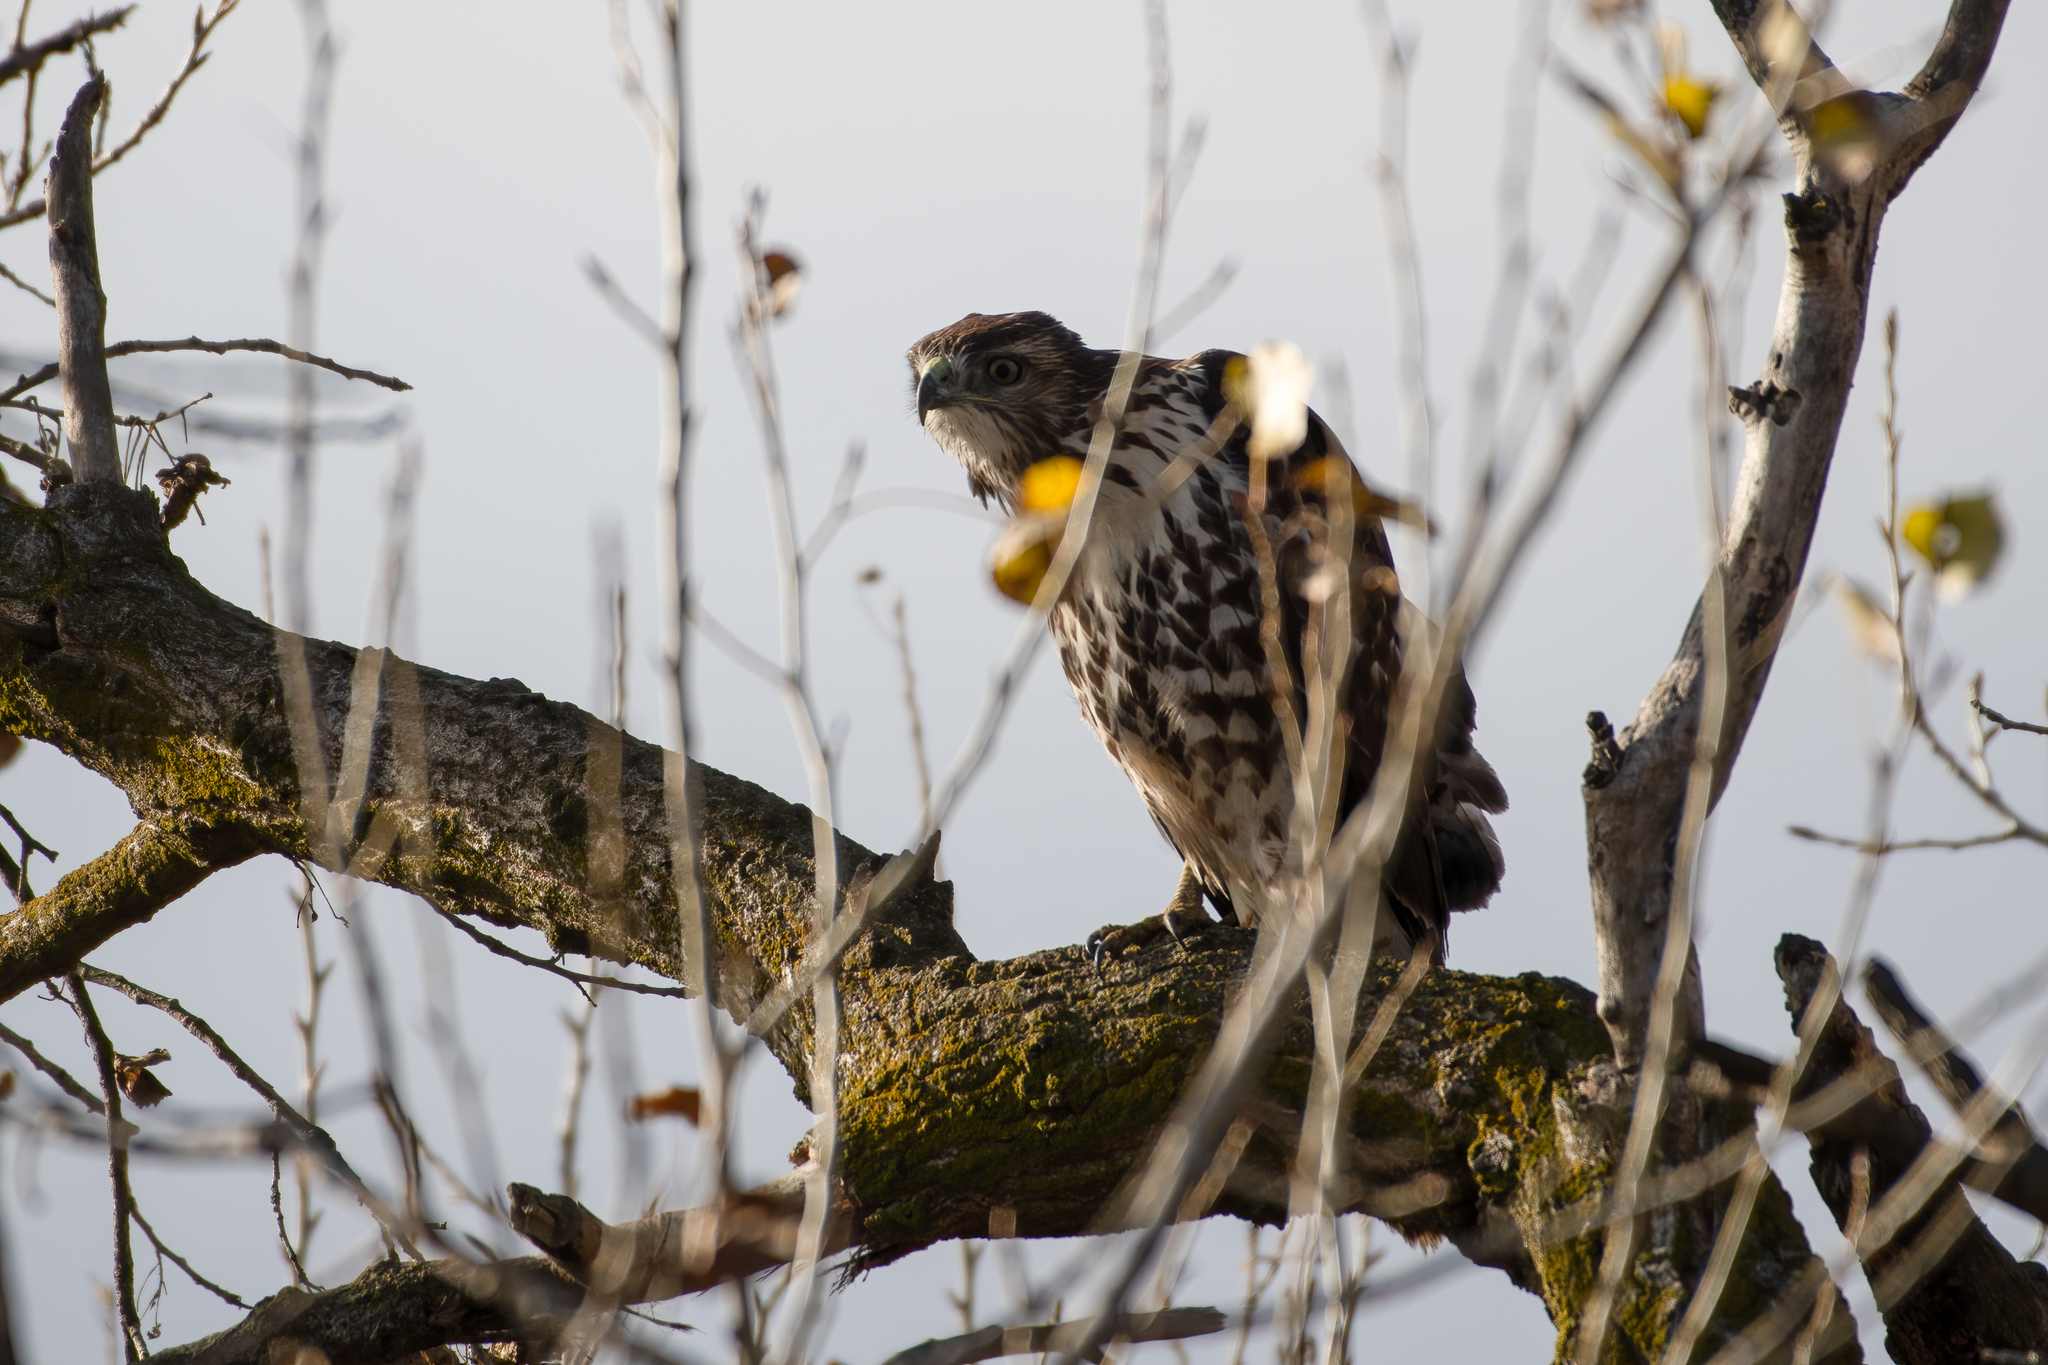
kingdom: Animalia
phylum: Chordata
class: Aves
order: Accipitriformes
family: Accipitridae
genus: Buteo
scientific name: Buteo jamaicensis
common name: Red-tailed hawk
